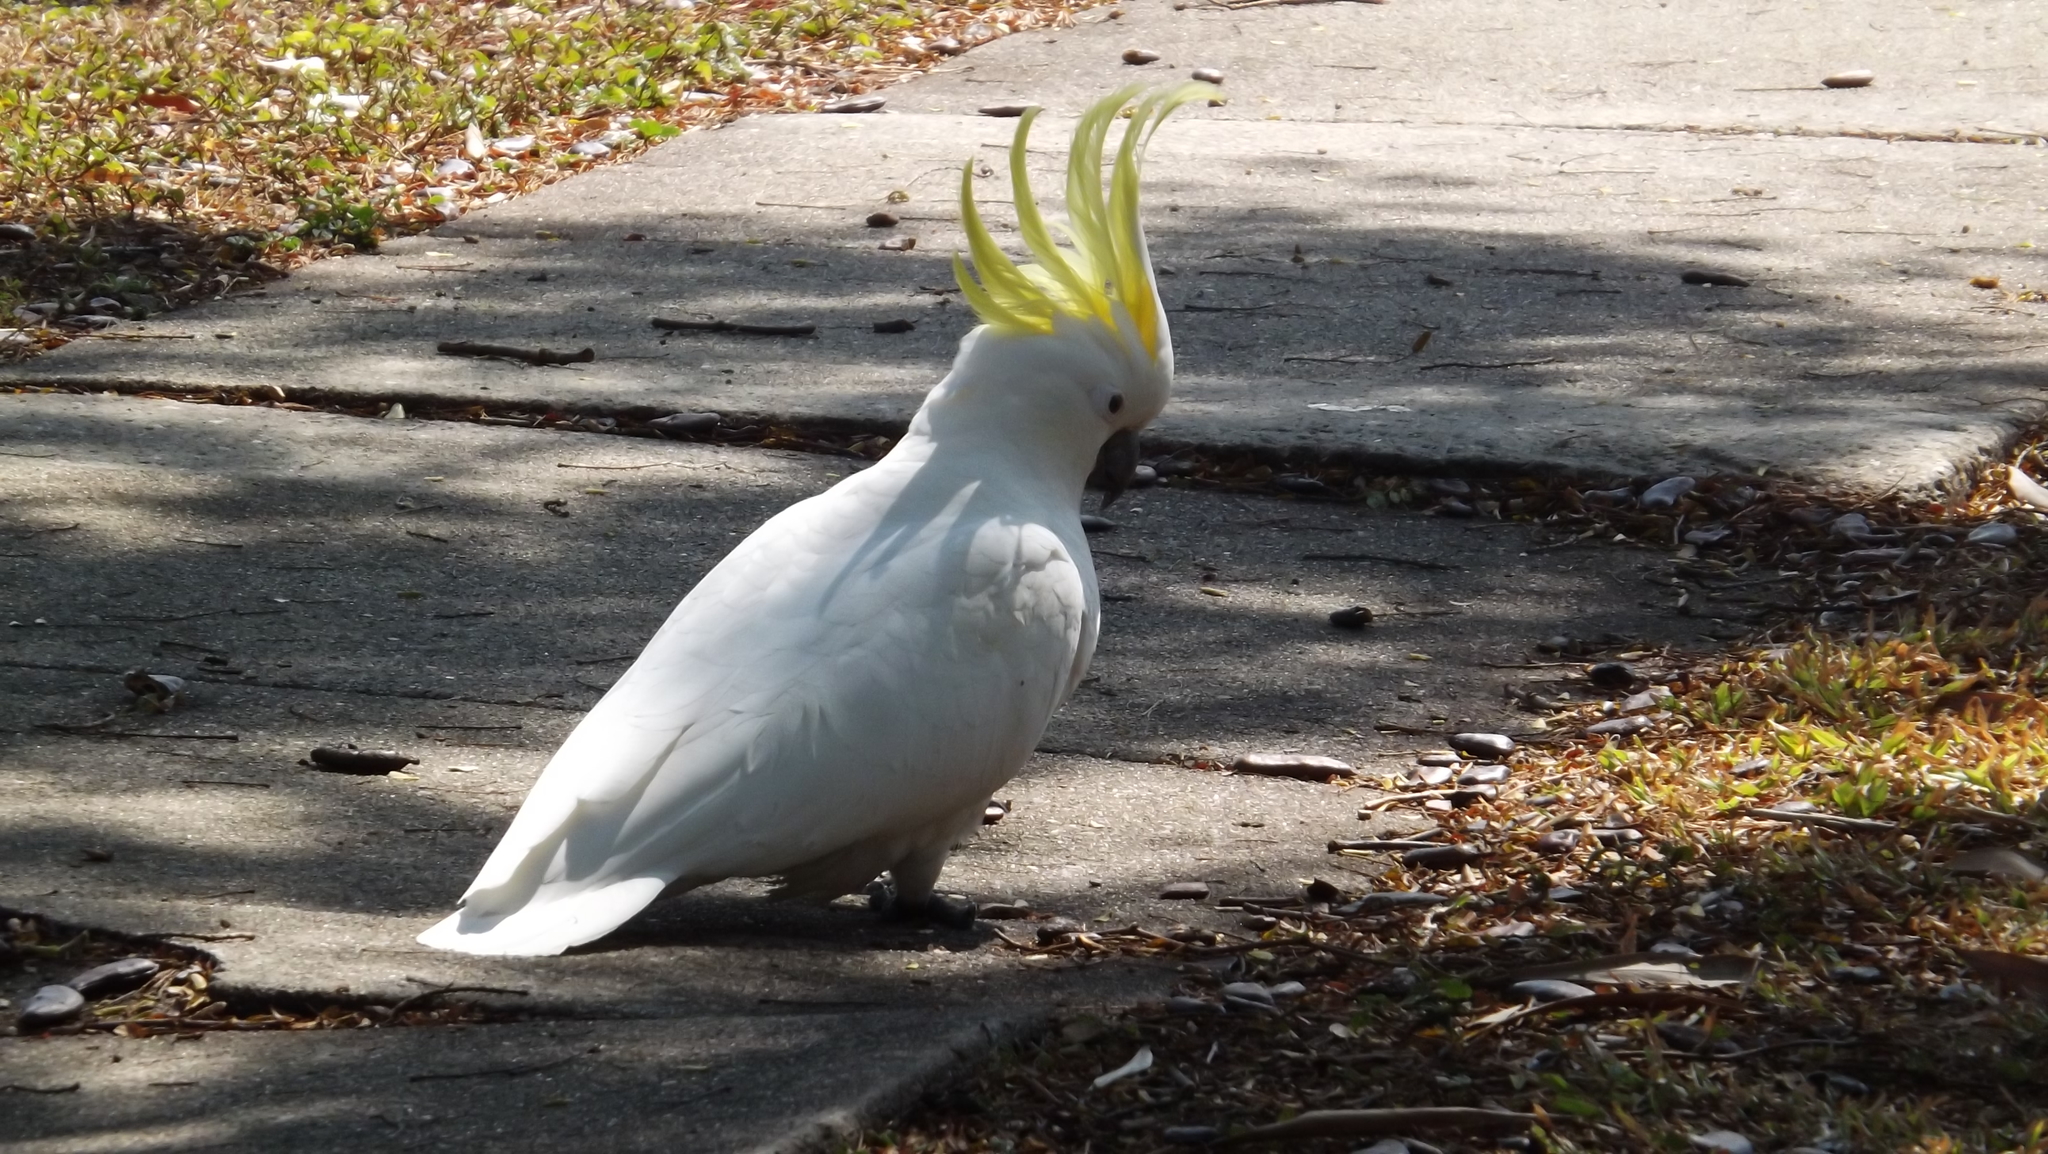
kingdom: Animalia
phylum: Chordata
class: Aves
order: Psittaciformes
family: Psittacidae
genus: Cacatua
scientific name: Cacatua galerita
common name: Sulphur-crested cockatoo
